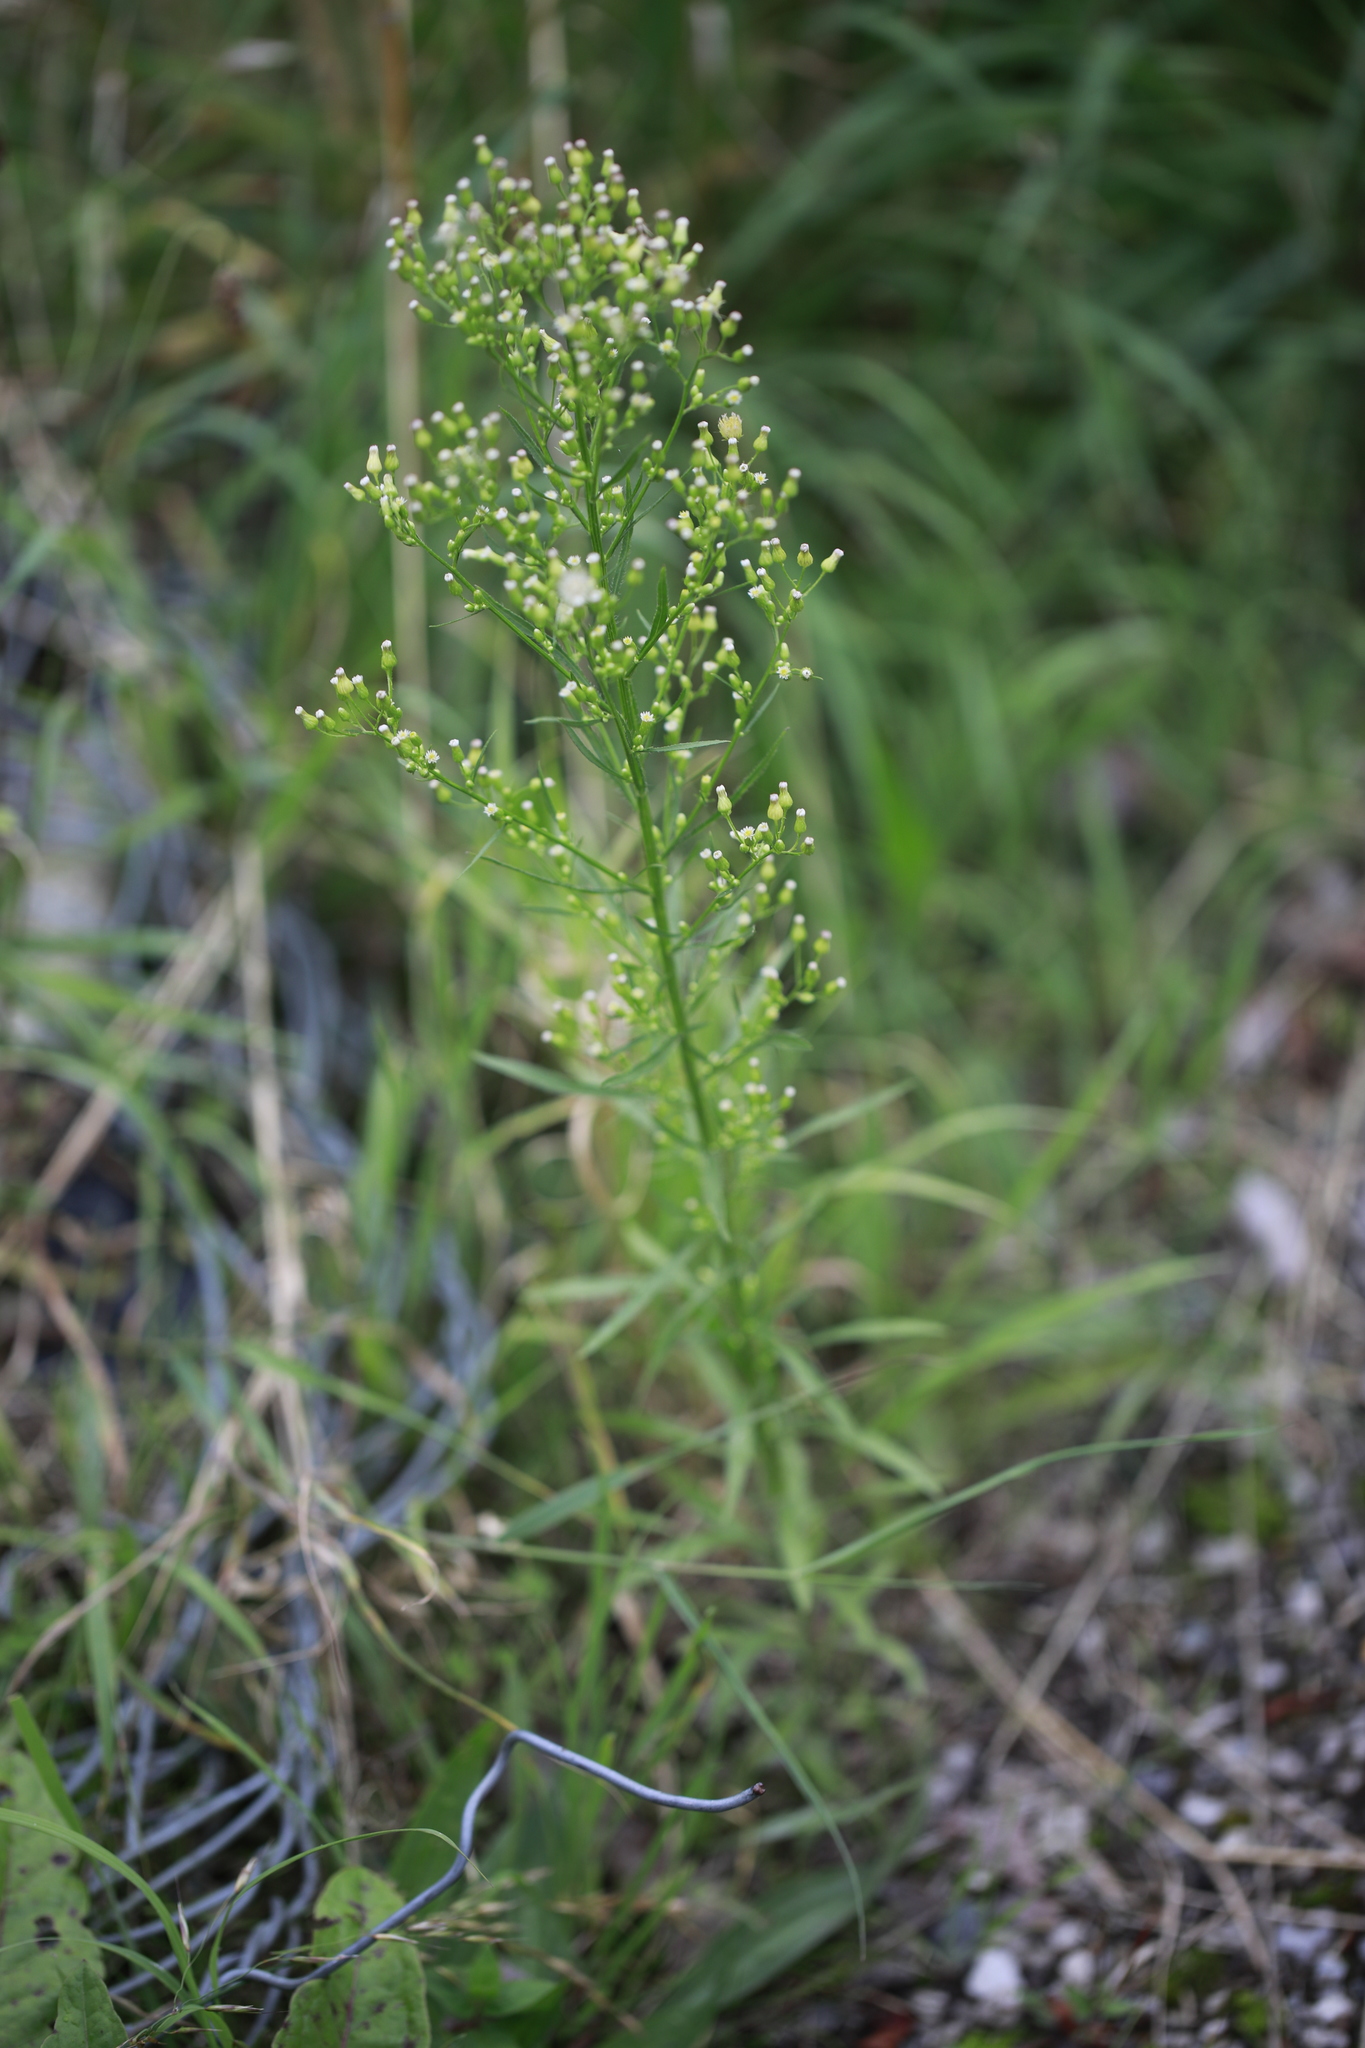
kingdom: Plantae
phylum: Tracheophyta
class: Magnoliopsida
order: Asterales
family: Asteraceae
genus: Erigeron
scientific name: Erigeron canadensis
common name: Canadian fleabane
